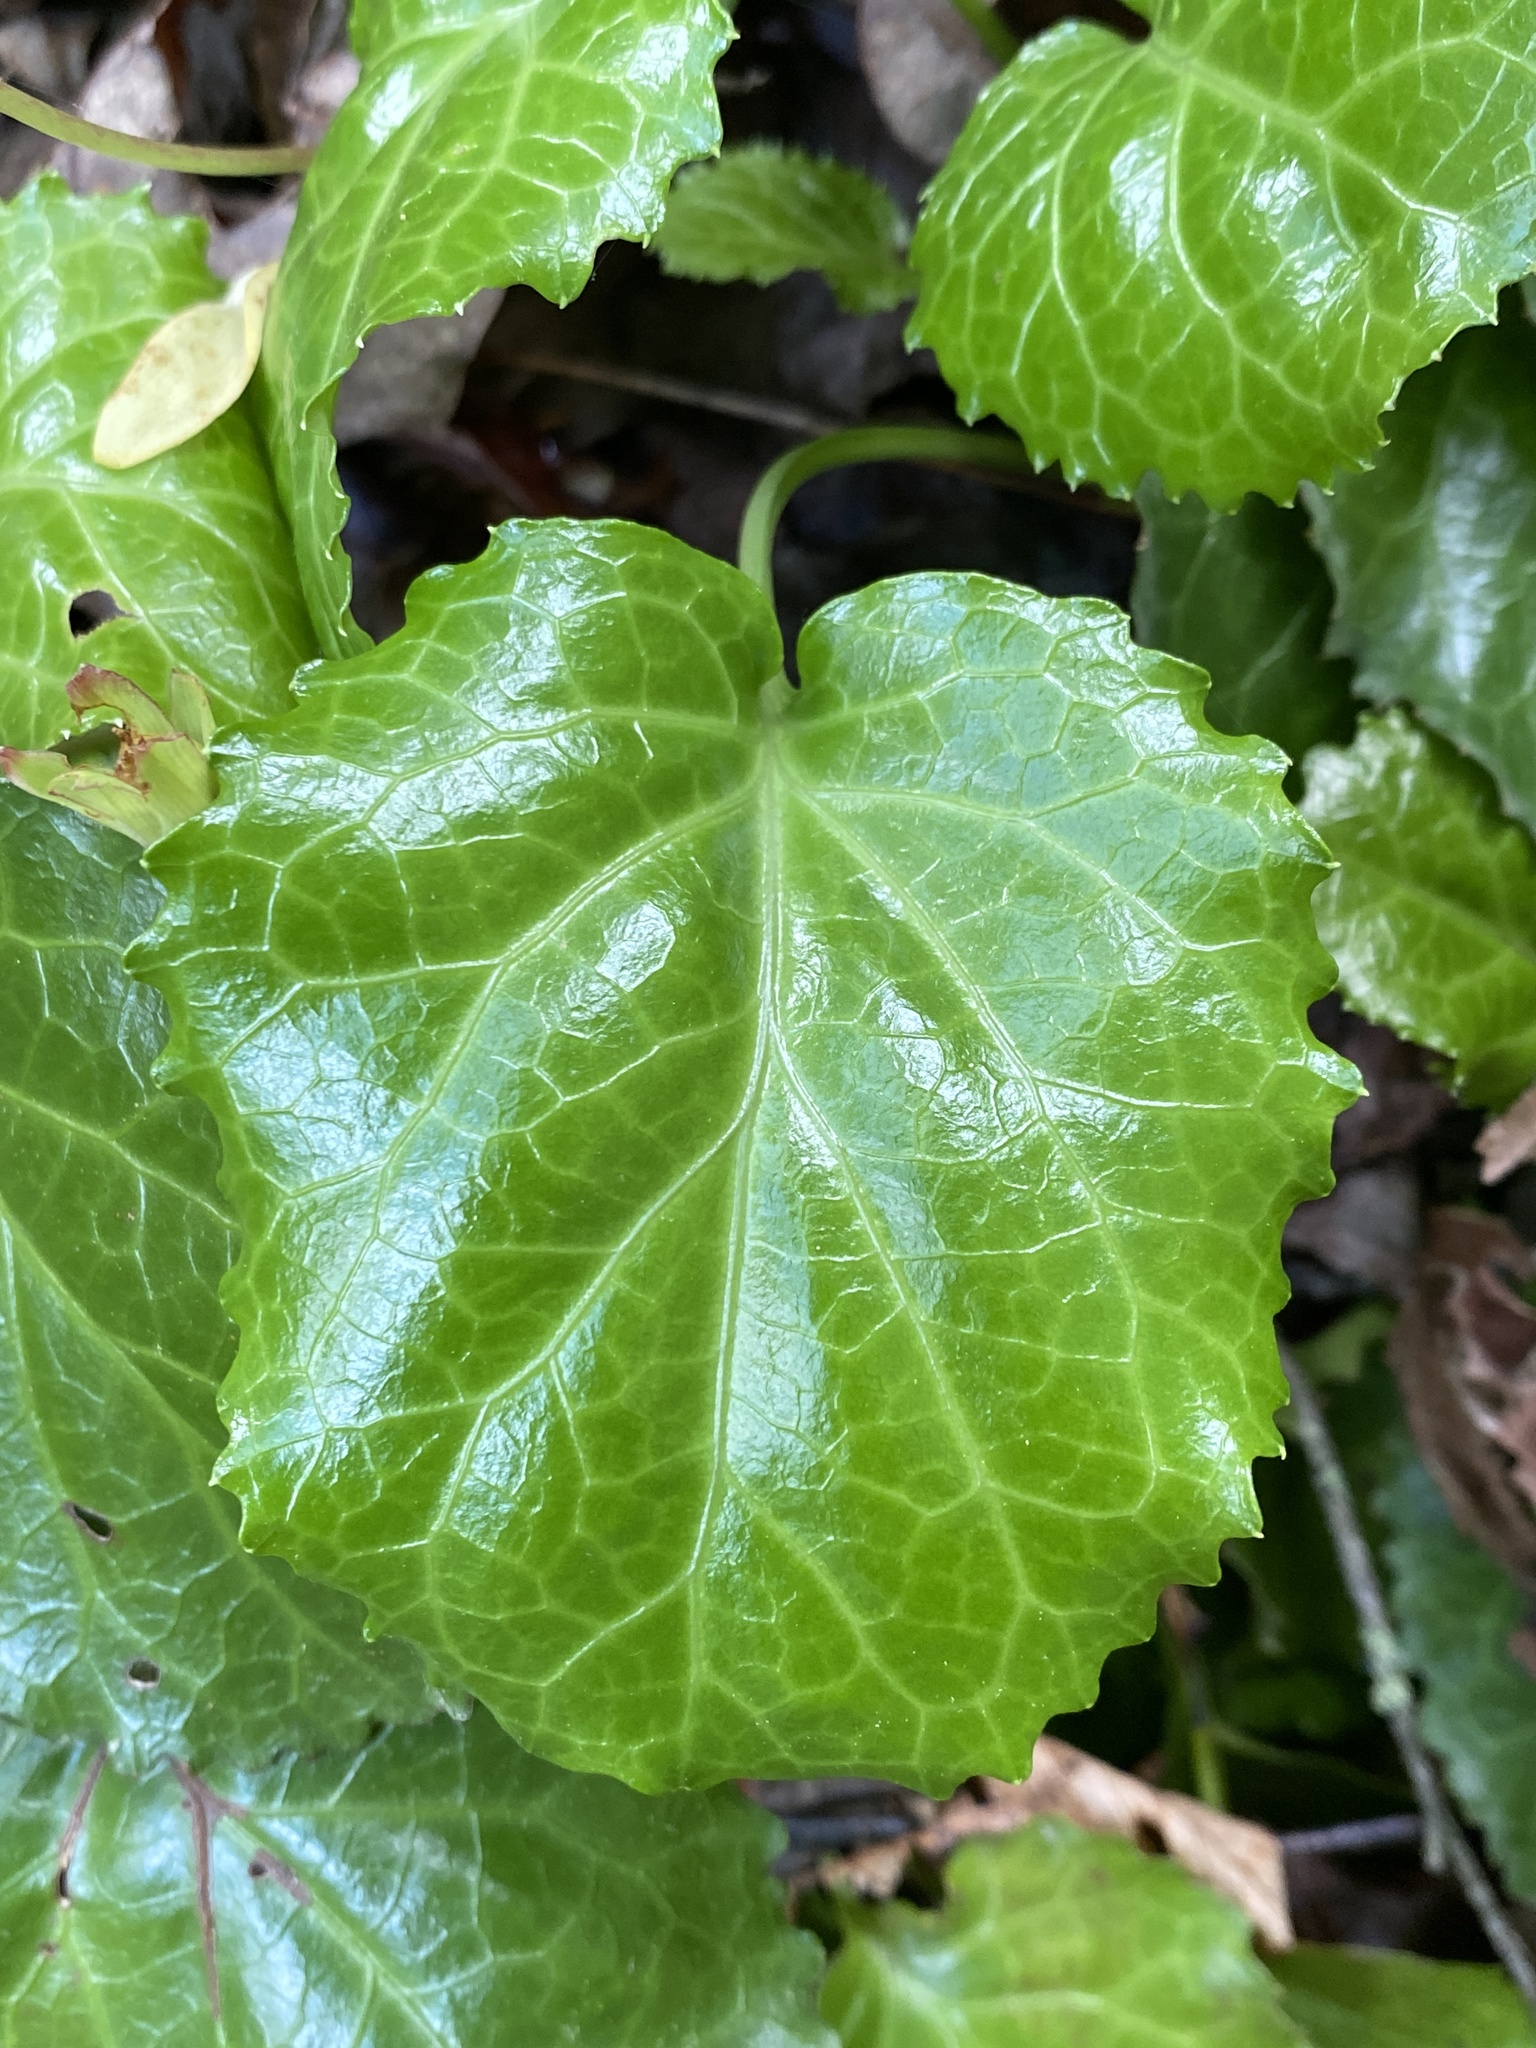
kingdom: Plantae
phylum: Tracheophyta
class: Magnoliopsida
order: Ericales
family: Diapensiaceae
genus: Shortia
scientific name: Shortia galacifolia
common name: Shortia
